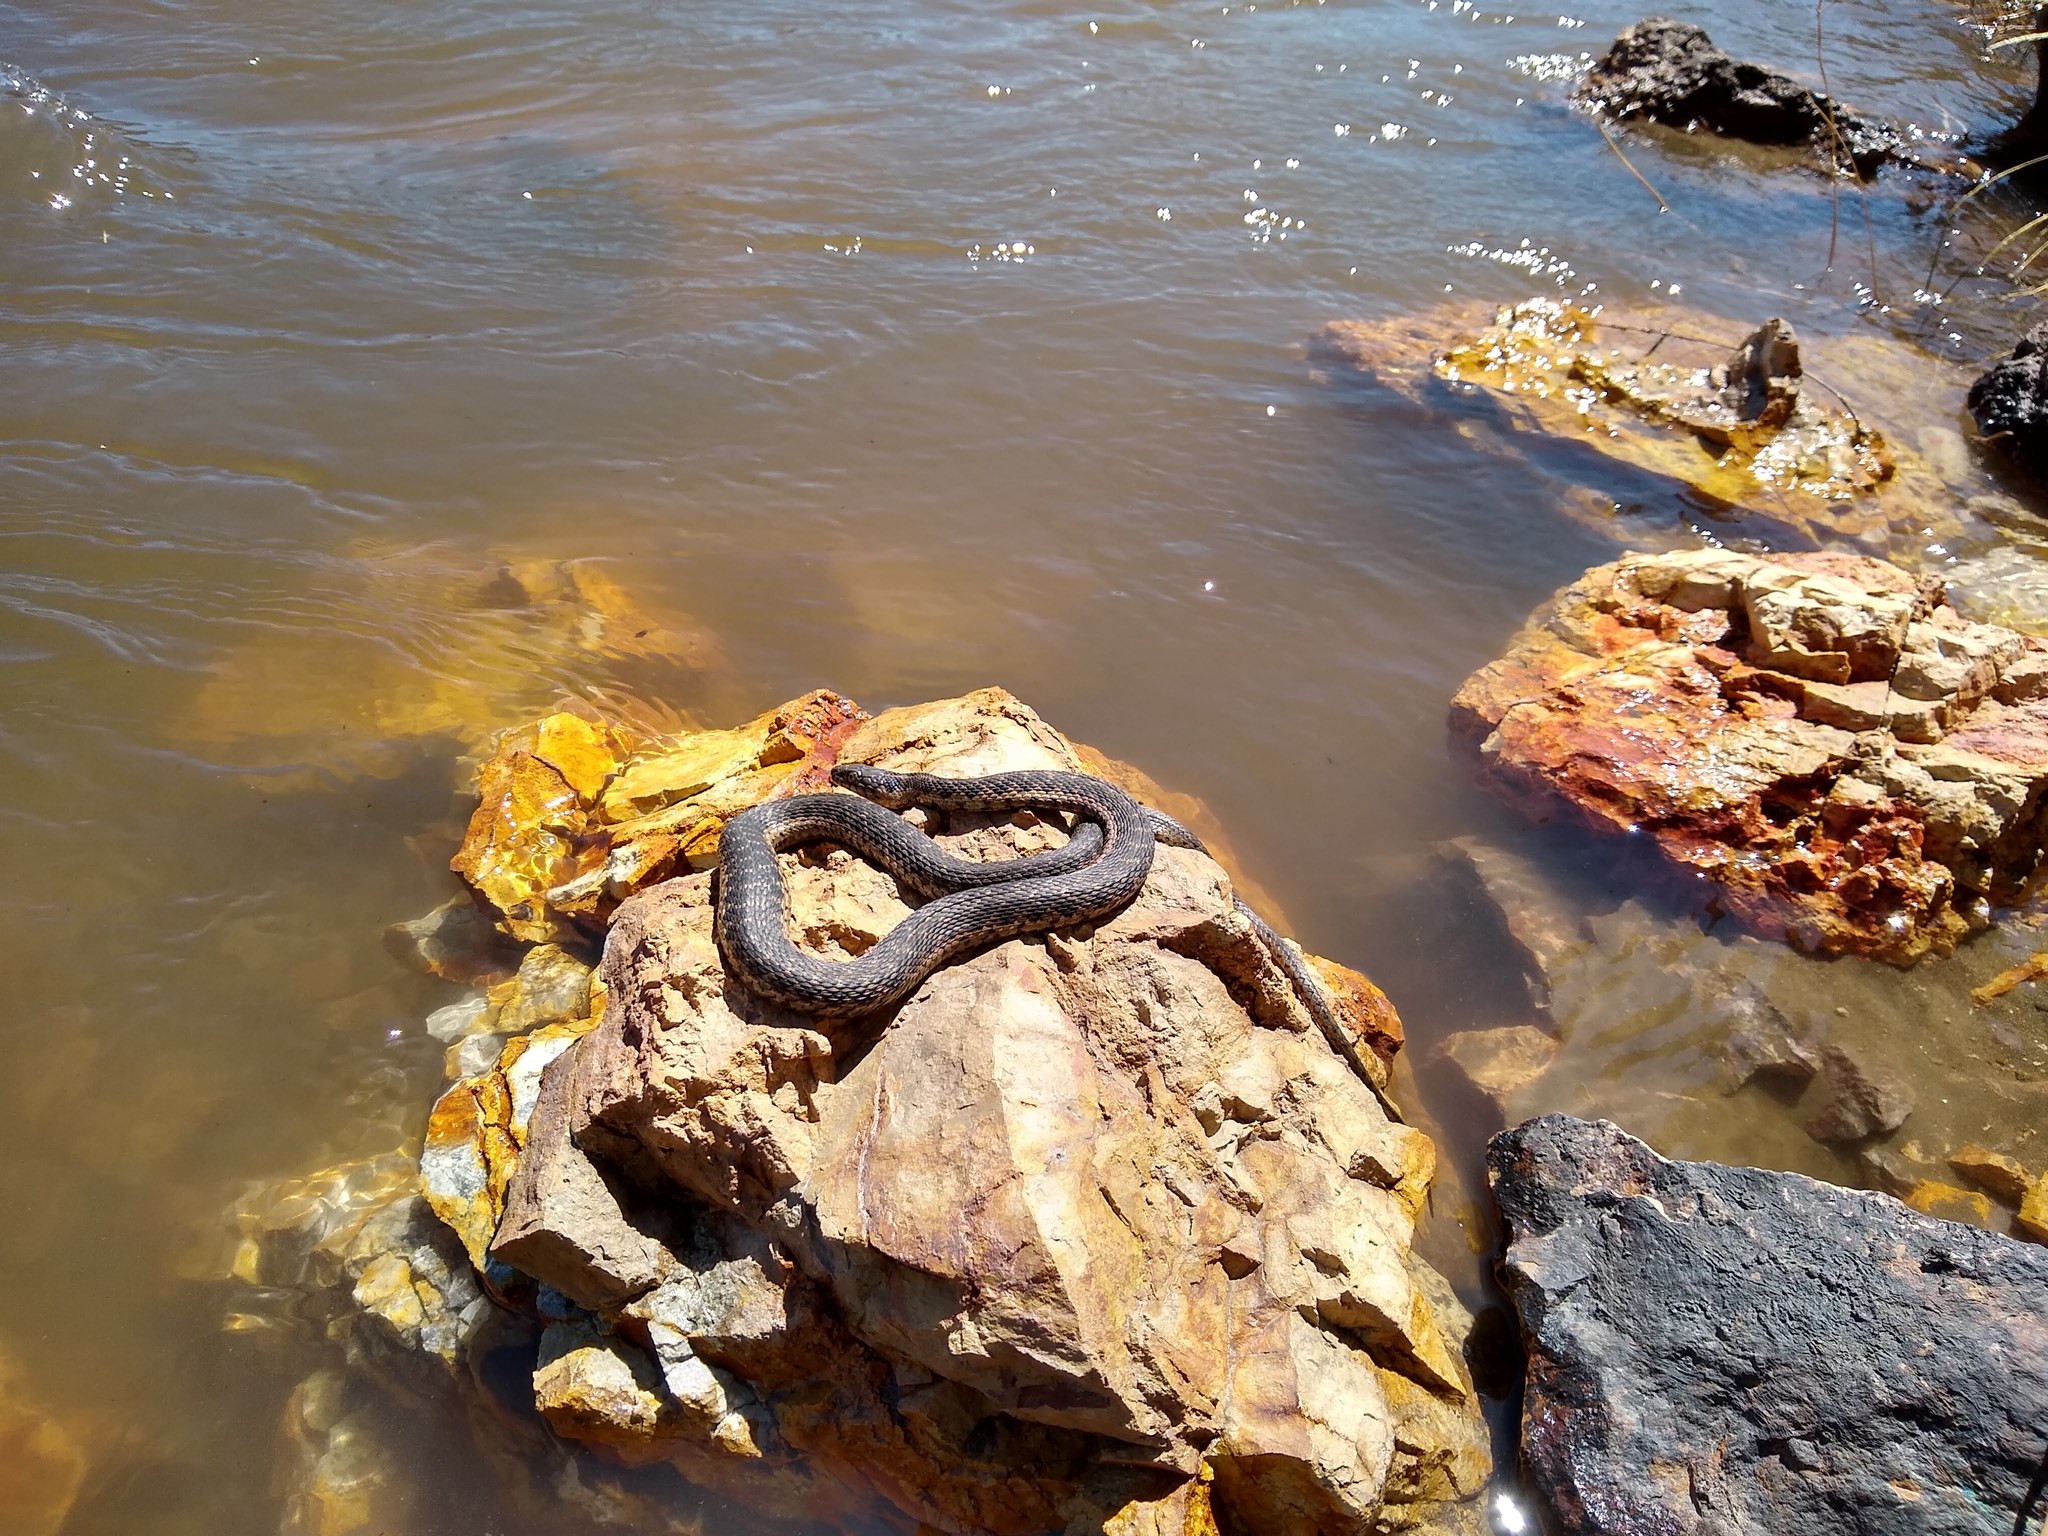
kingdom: Animalia
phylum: Chordata
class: Squamata
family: Colubridae
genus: Thamnophis
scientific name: Thamnophis couchii
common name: Western aquatic garter snake
